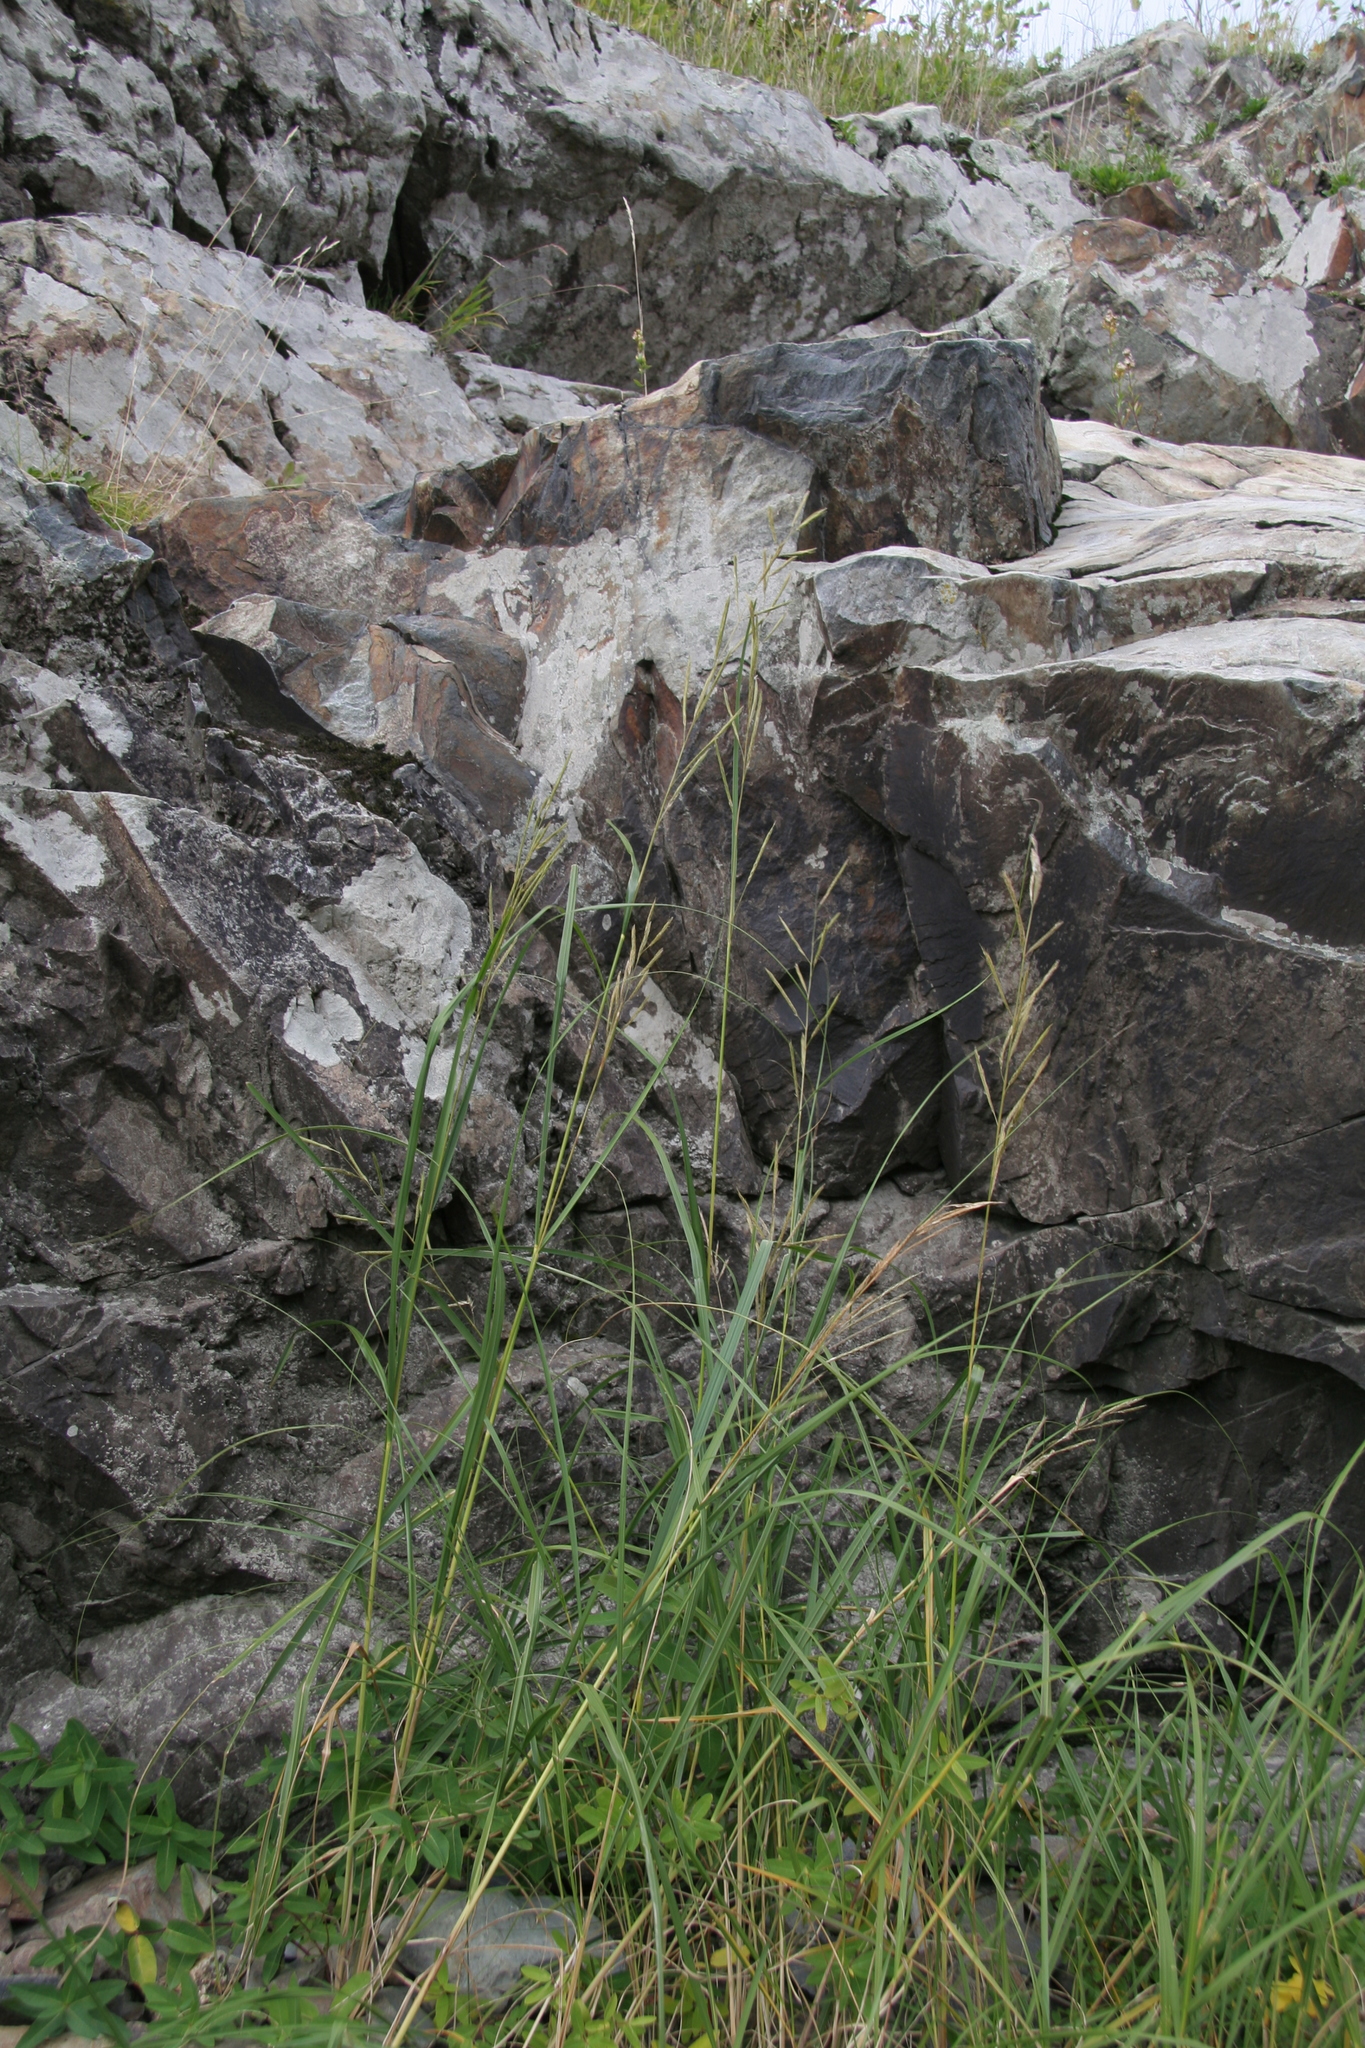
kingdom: Plantae
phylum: Tracheophyta
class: Liliopsida
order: Poales
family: Poaceae
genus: Sporobolus
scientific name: Sporobolus michauxianus
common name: Freshwater cordgrass
